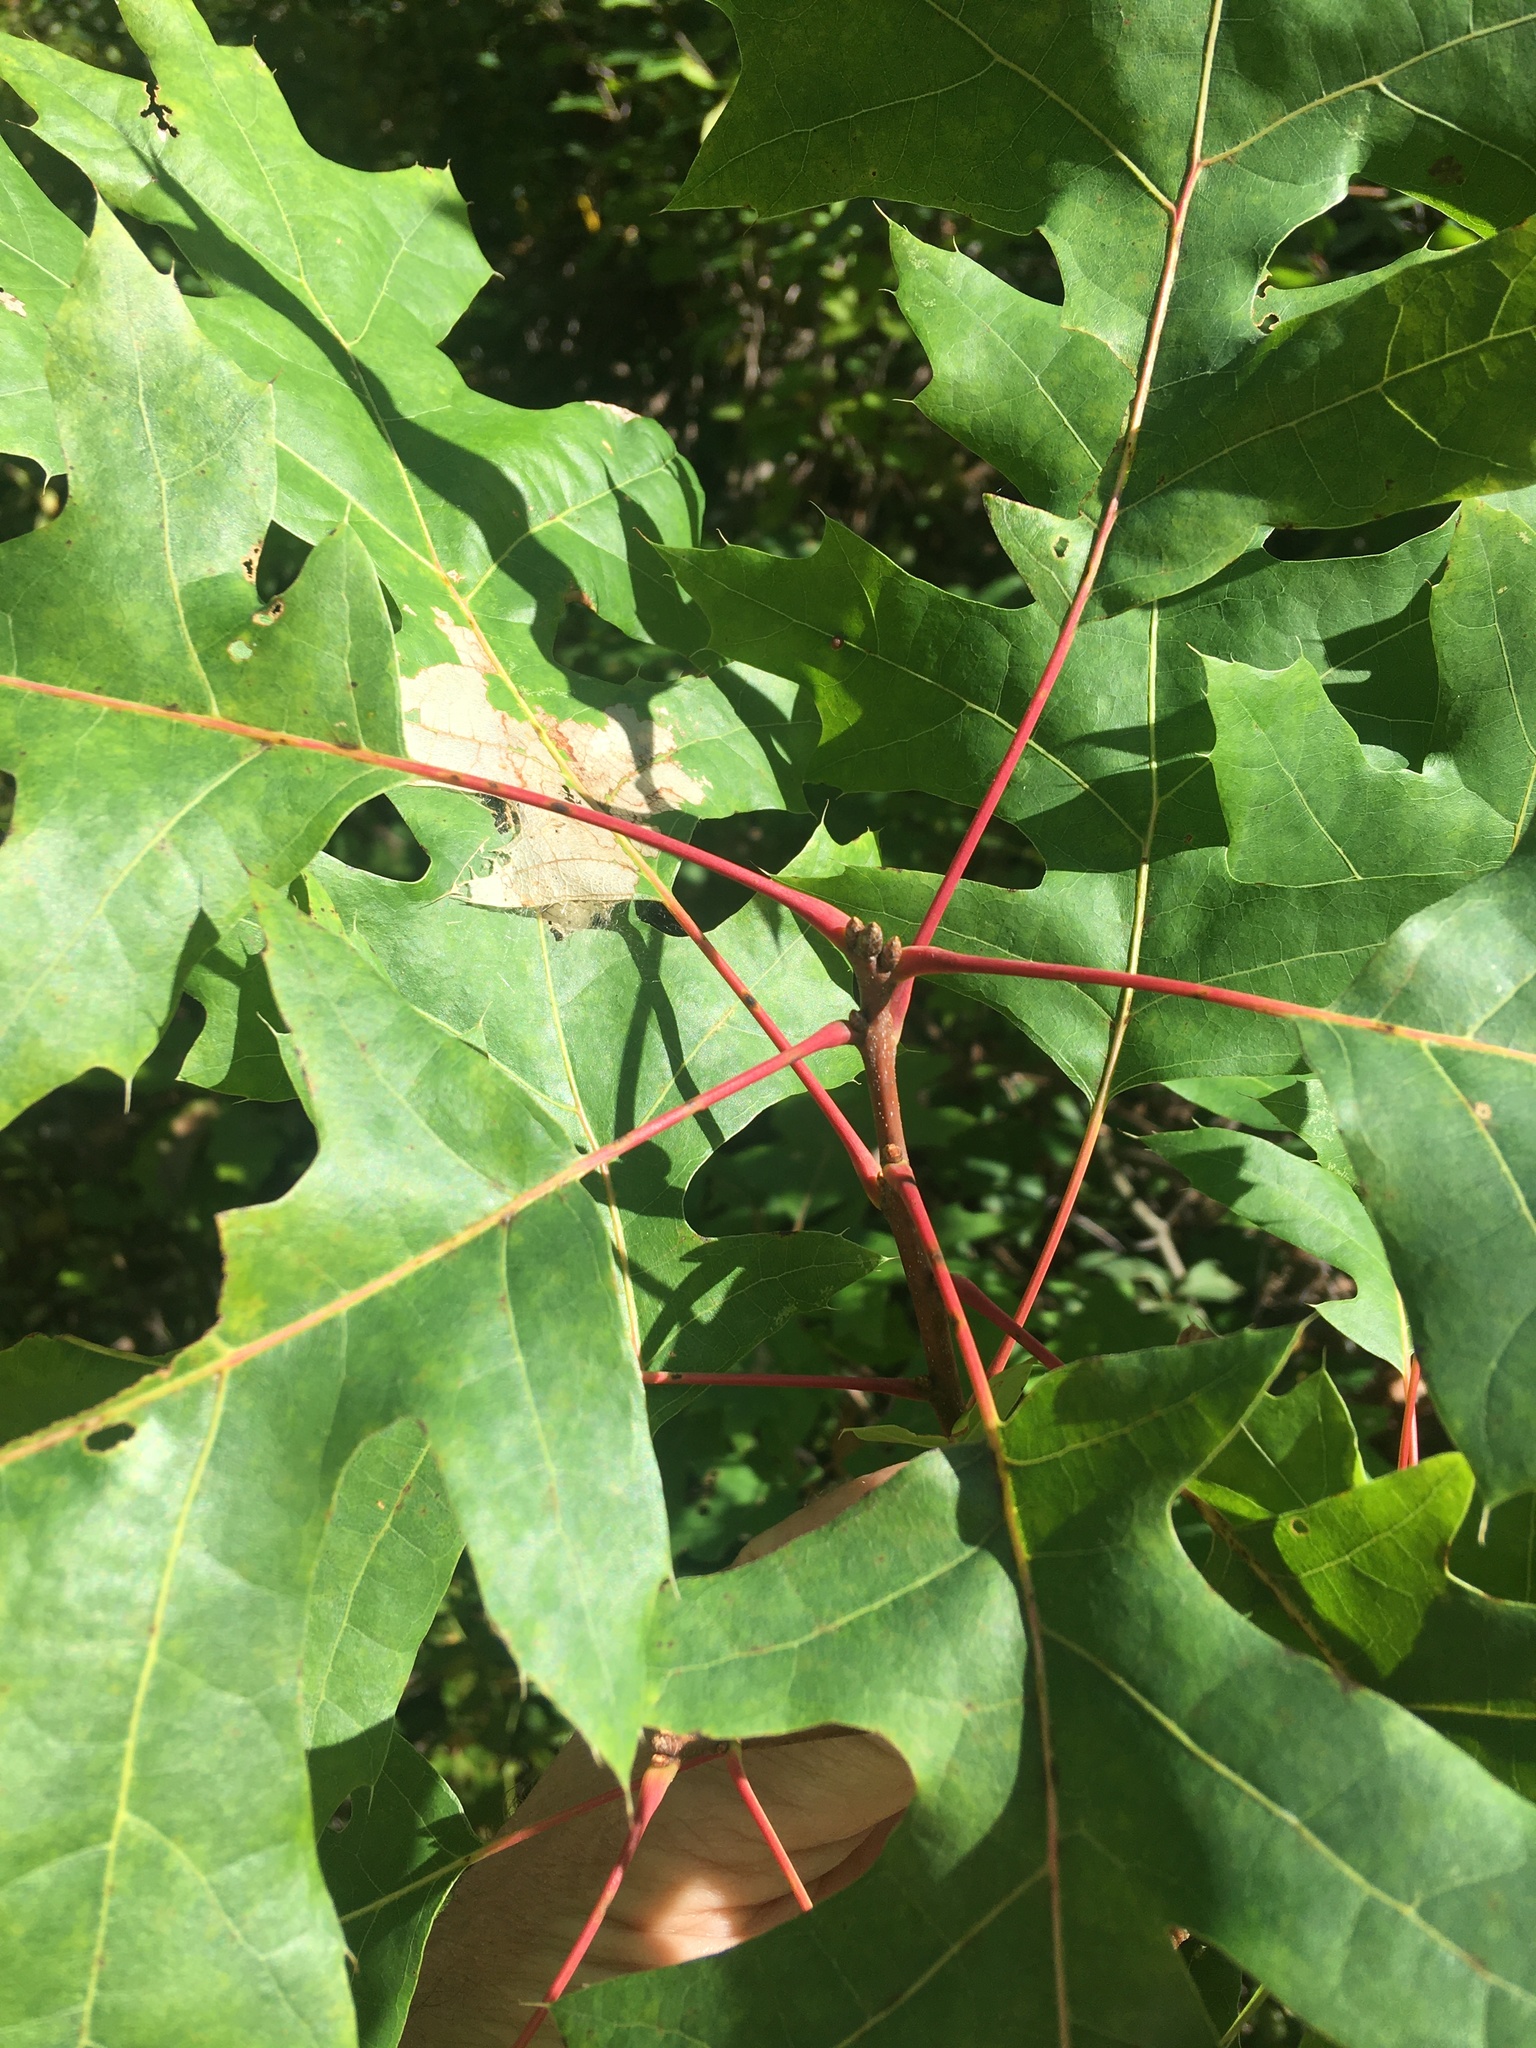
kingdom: Plantae
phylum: Tracheophyta
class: Magnoliopsida
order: Fagales
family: Fagaceae
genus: Quercus
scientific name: Quercus rubra
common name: Red oak
